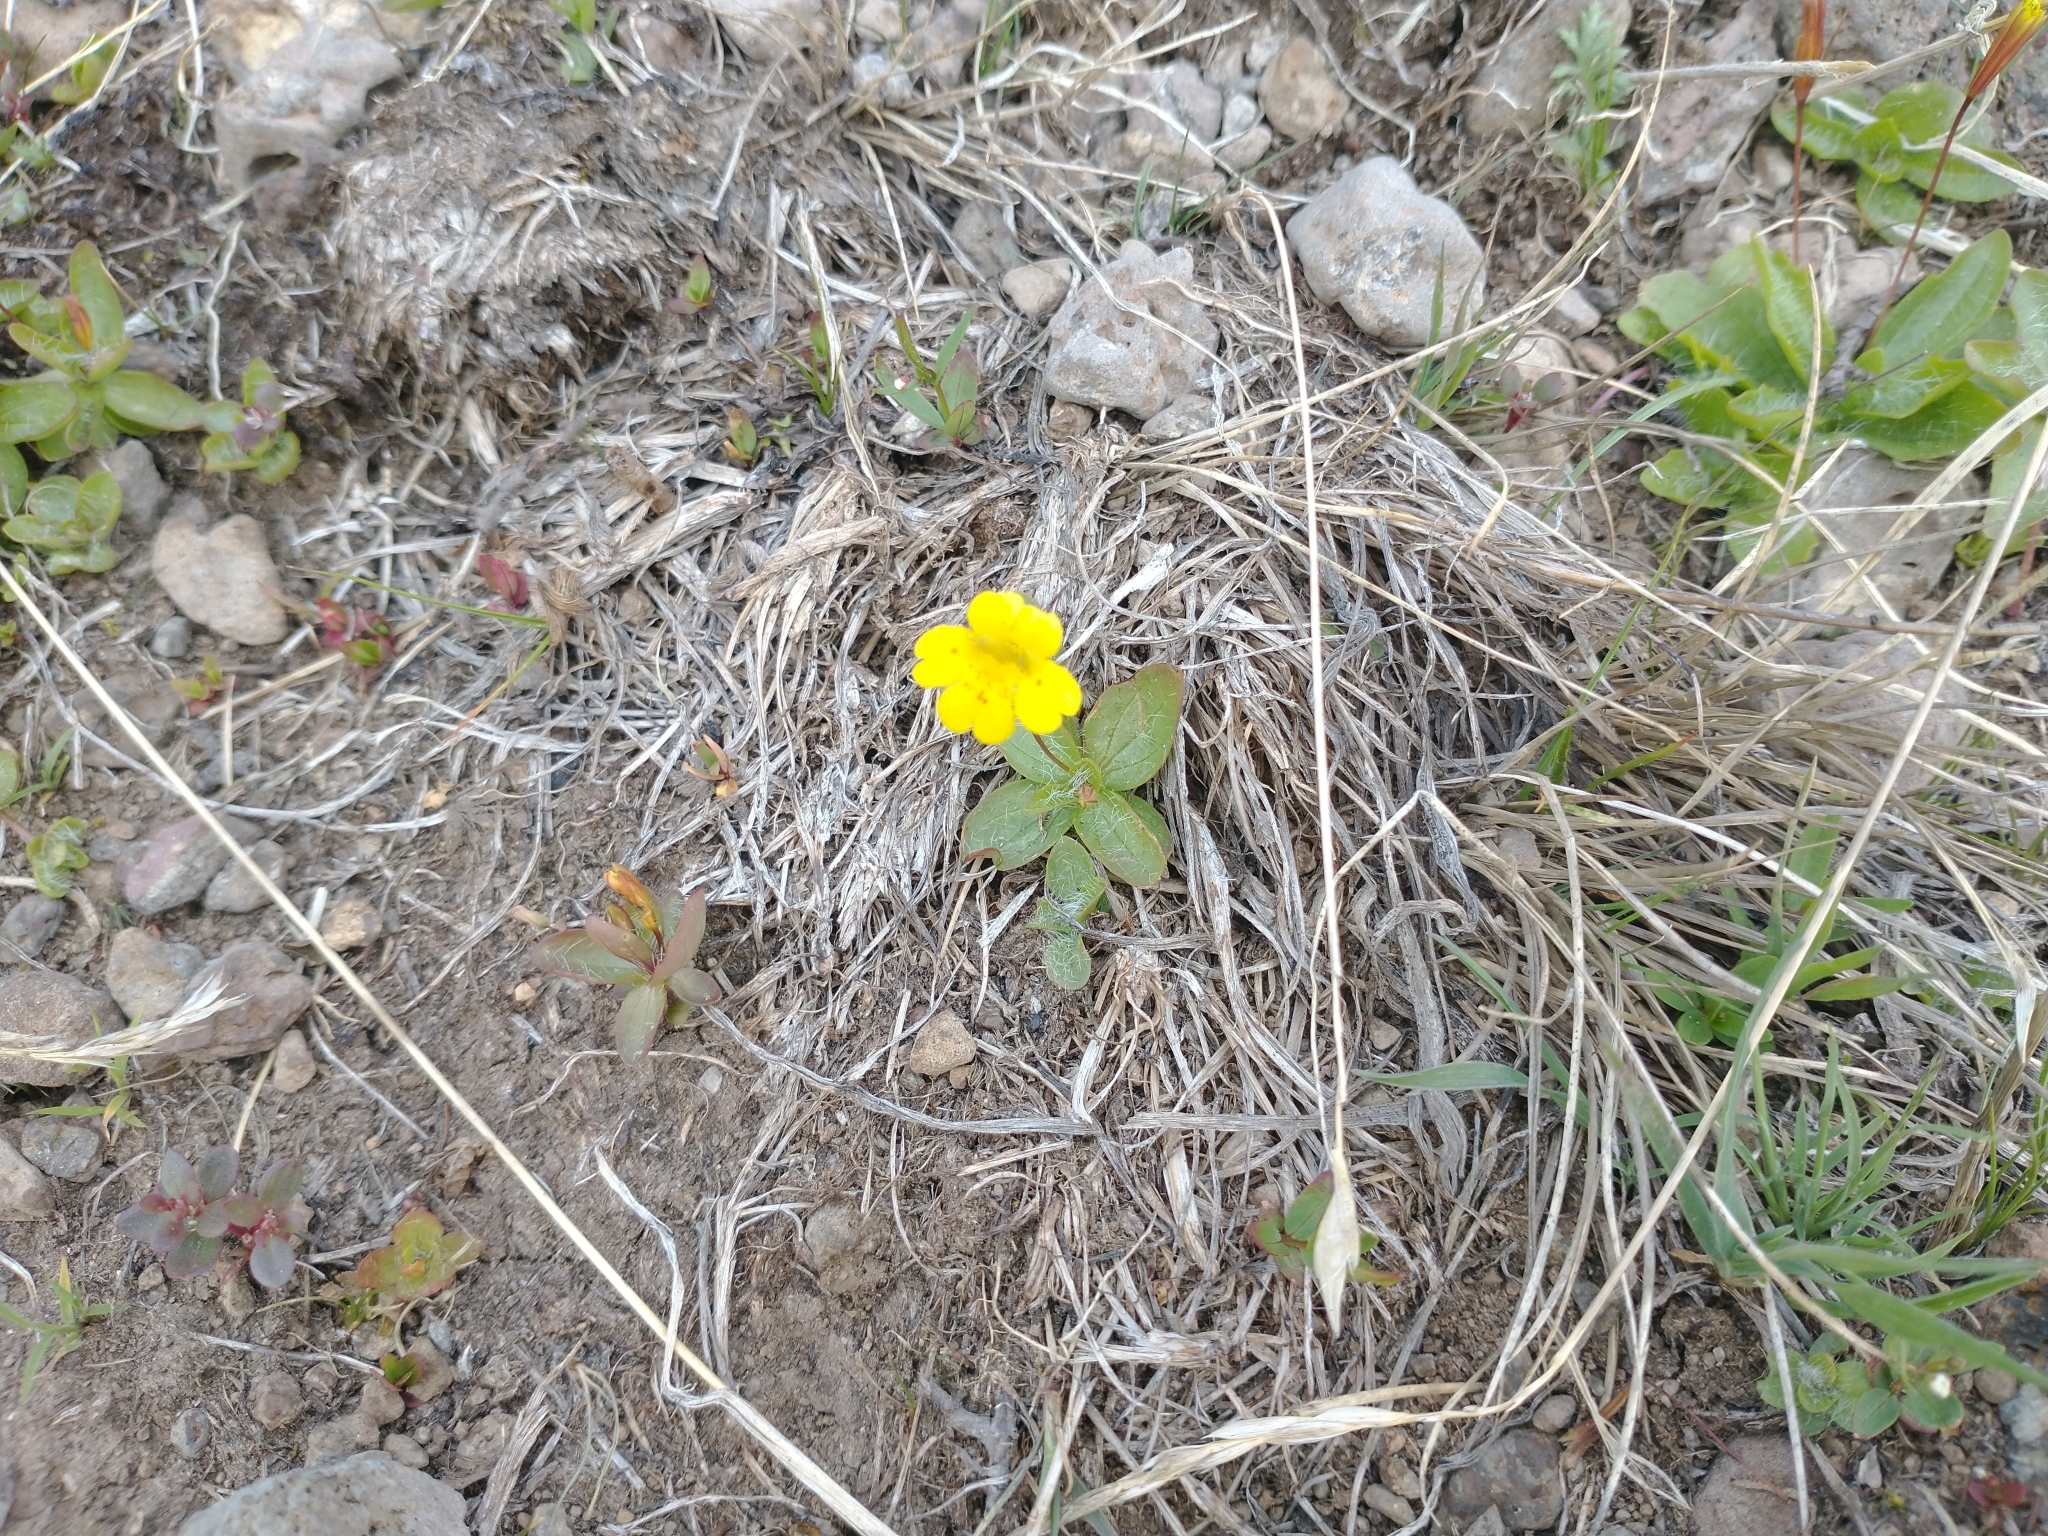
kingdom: Plantae
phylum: Tracheophyta
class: Magnoliopsida
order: Lamiales
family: Phrymaceae
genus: Erythranthe
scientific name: Erythranthe primuloides
